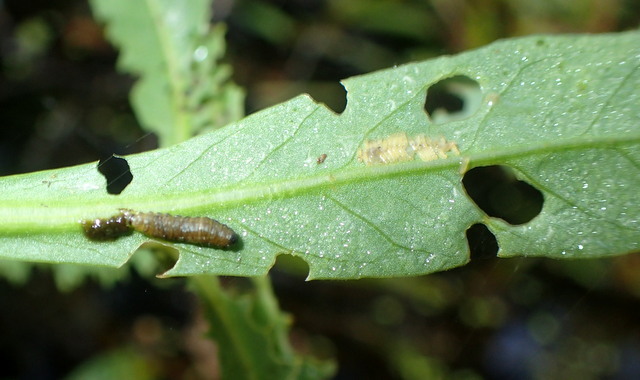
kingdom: Animalia
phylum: Arthropoda
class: Insecta
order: Coleoptera
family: Chrysomelidae
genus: Agasicles
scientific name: Agasicles hygrophila
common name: Alligatorweed flea beetle
